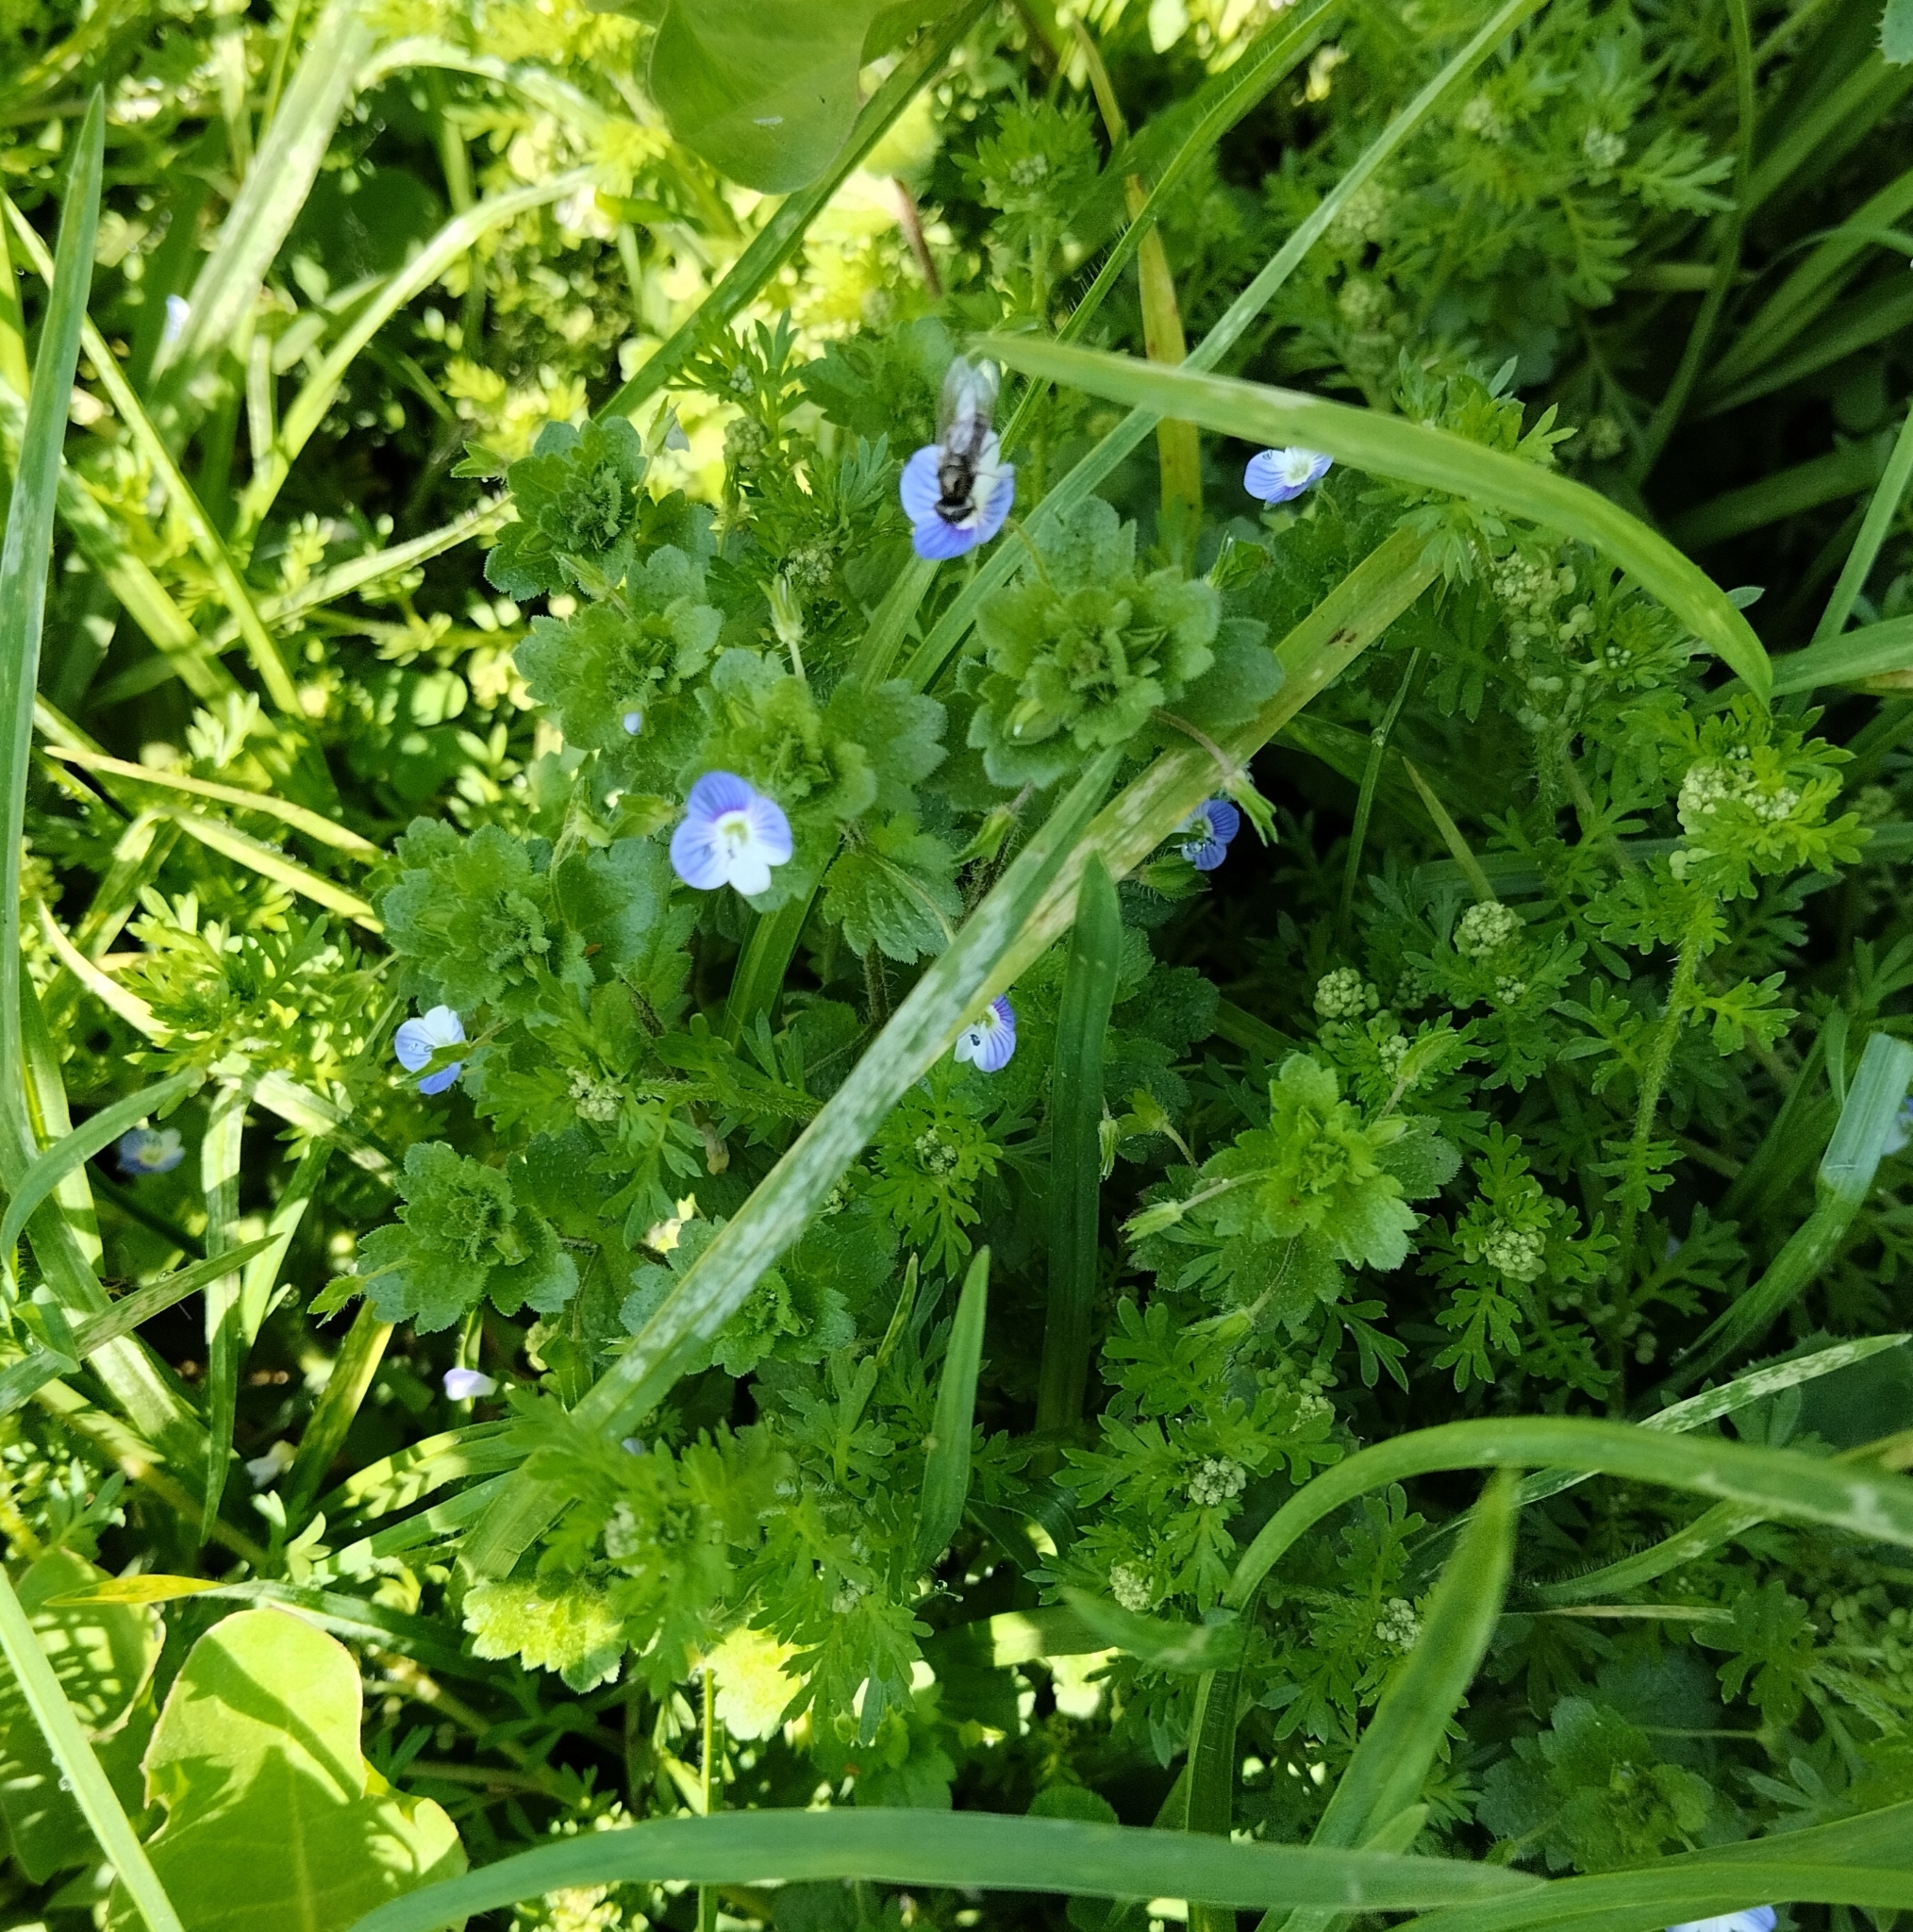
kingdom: Plantae
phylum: Tracheophyta
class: Magnoliopsida
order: Lamiales
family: Plantaginaceae
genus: Veronica
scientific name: Veronica persica
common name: Common field-speedwell
